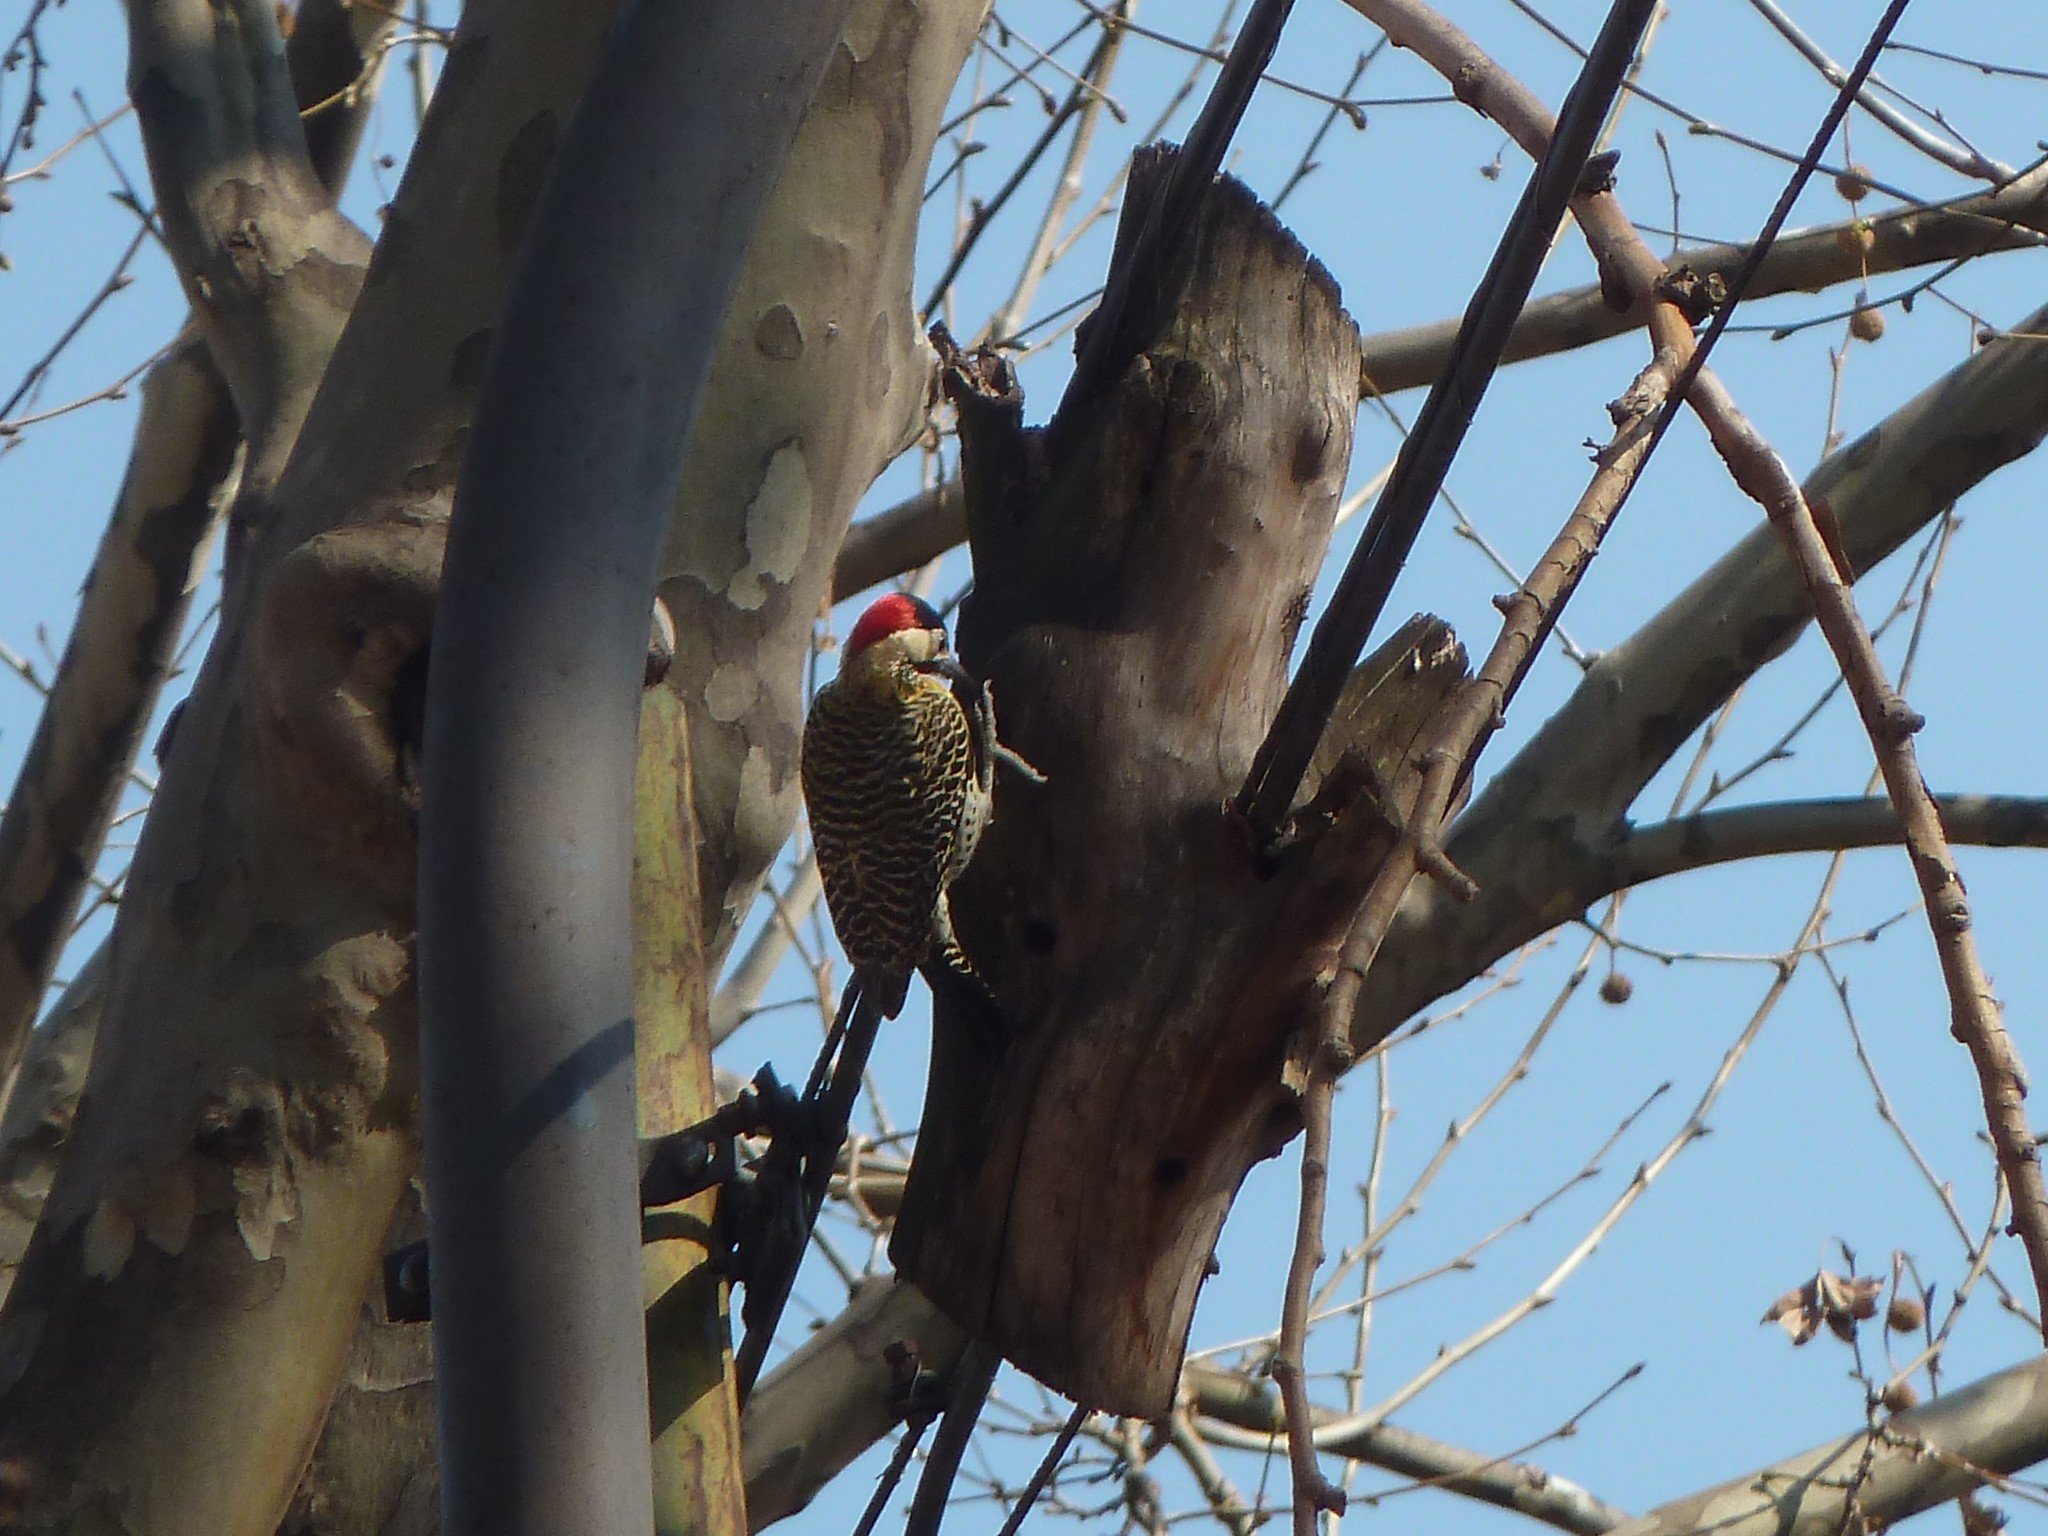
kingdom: Animalia
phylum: Chordata
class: Aves
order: Piciformes
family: Picidae
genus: Colaptes
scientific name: Colaptes melanochloros
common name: Green-barred woodpecker
